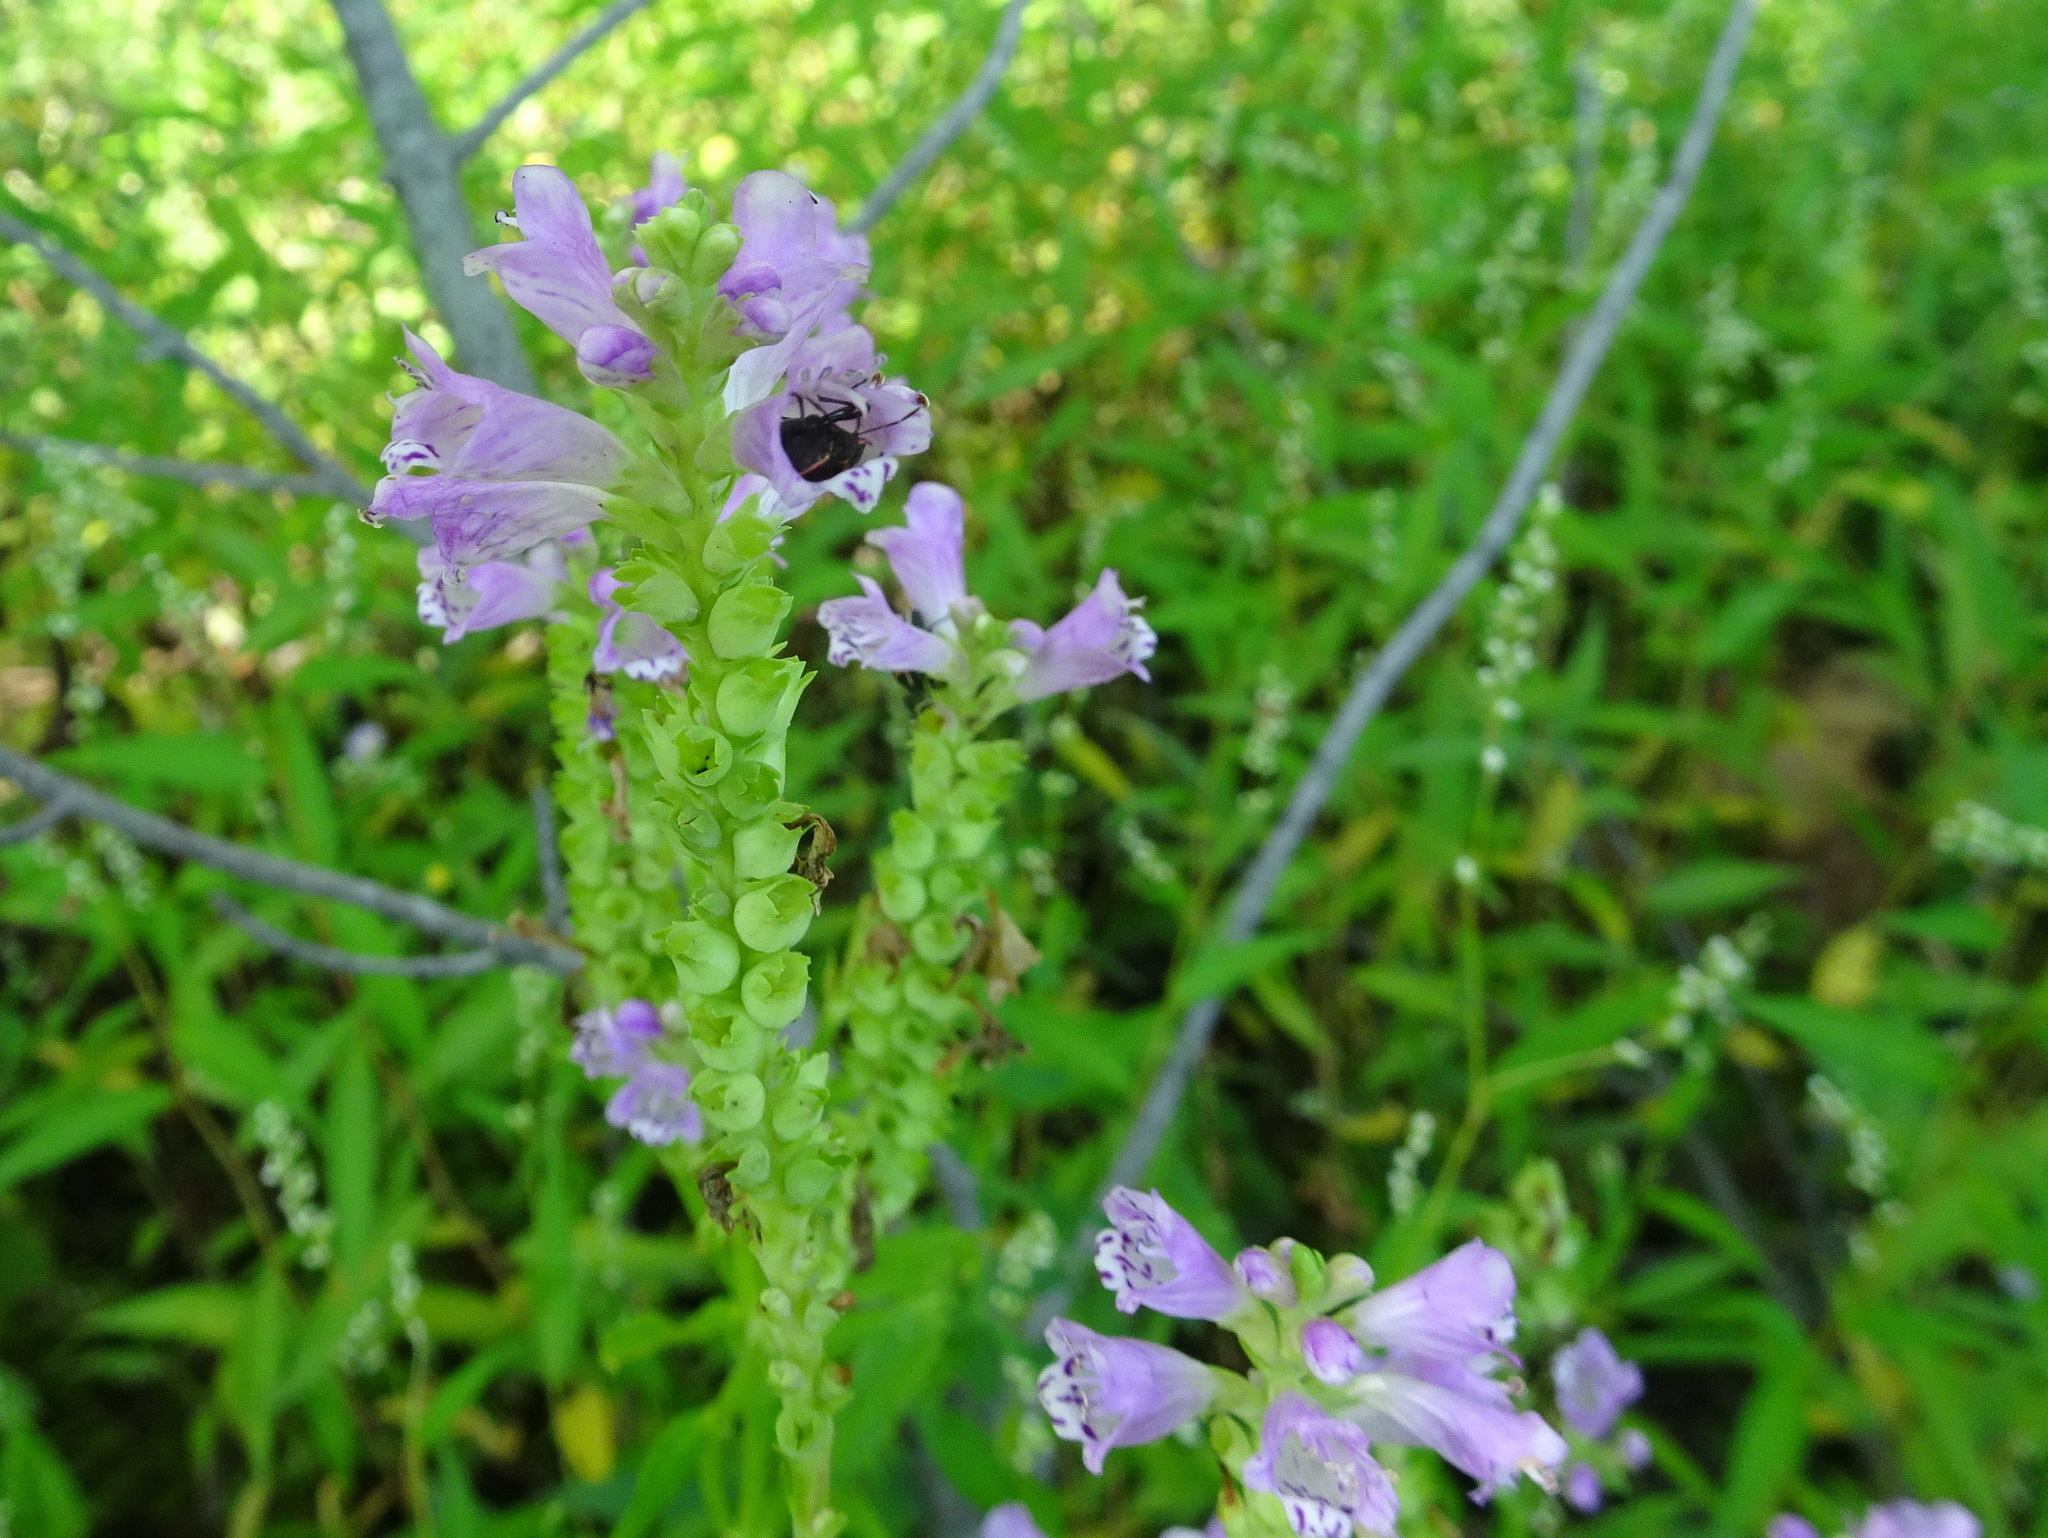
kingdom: Plantae
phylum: Tracheophyta
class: Magnoliopsida
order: Lamiales
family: Lamiaceae
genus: Physostegia
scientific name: Physostegia virginiana
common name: Obedient-plant
